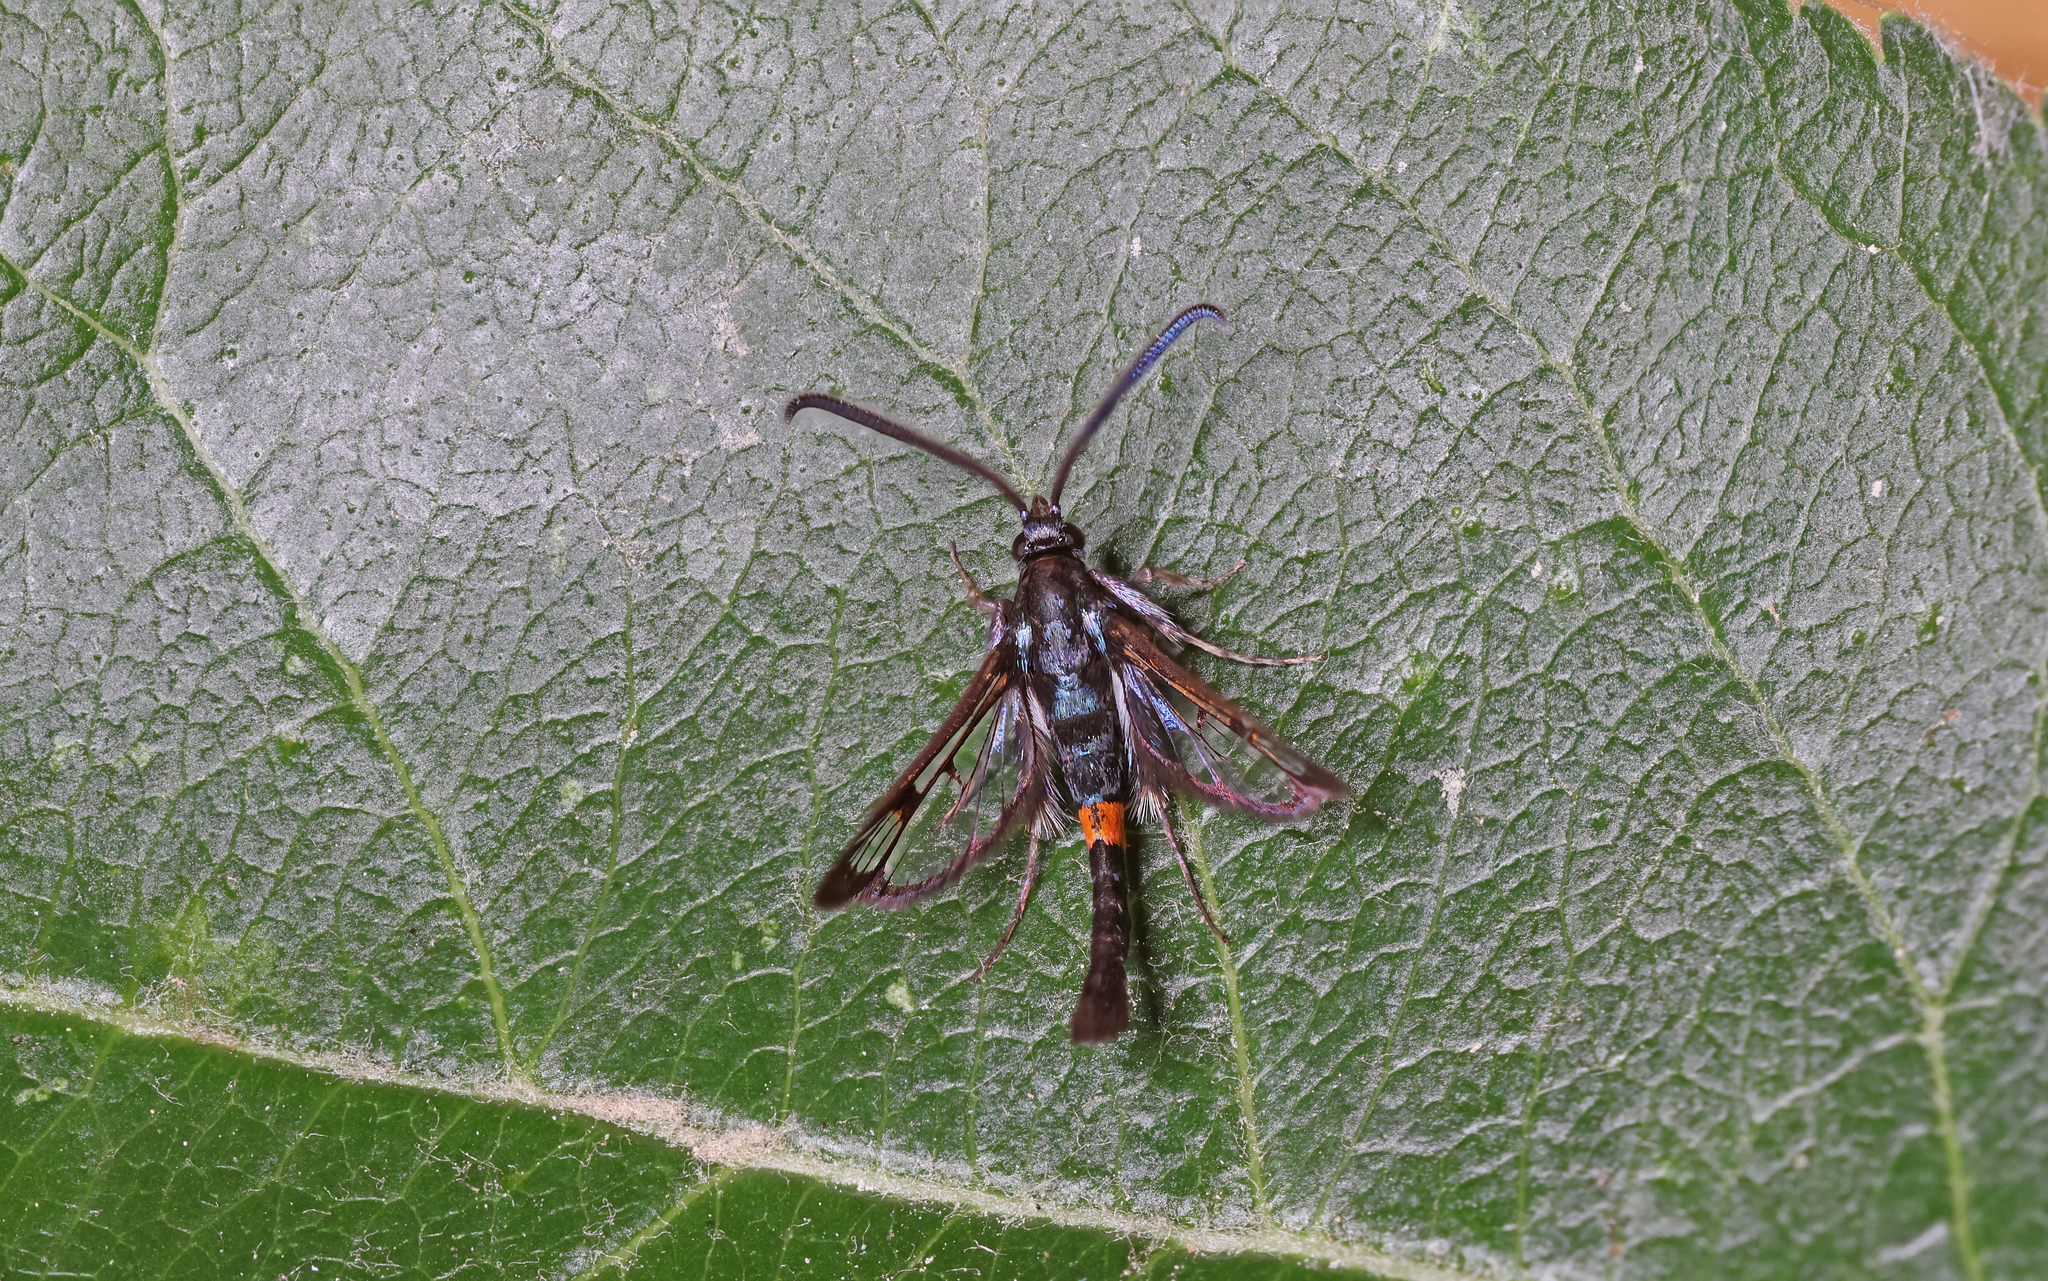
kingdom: Animalia
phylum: Arthropoda
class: Insecta
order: Lepidoptera
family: Sesiidae
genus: Synanthedon
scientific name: Synanthedon myopaeformis
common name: Red-belted clearwing
